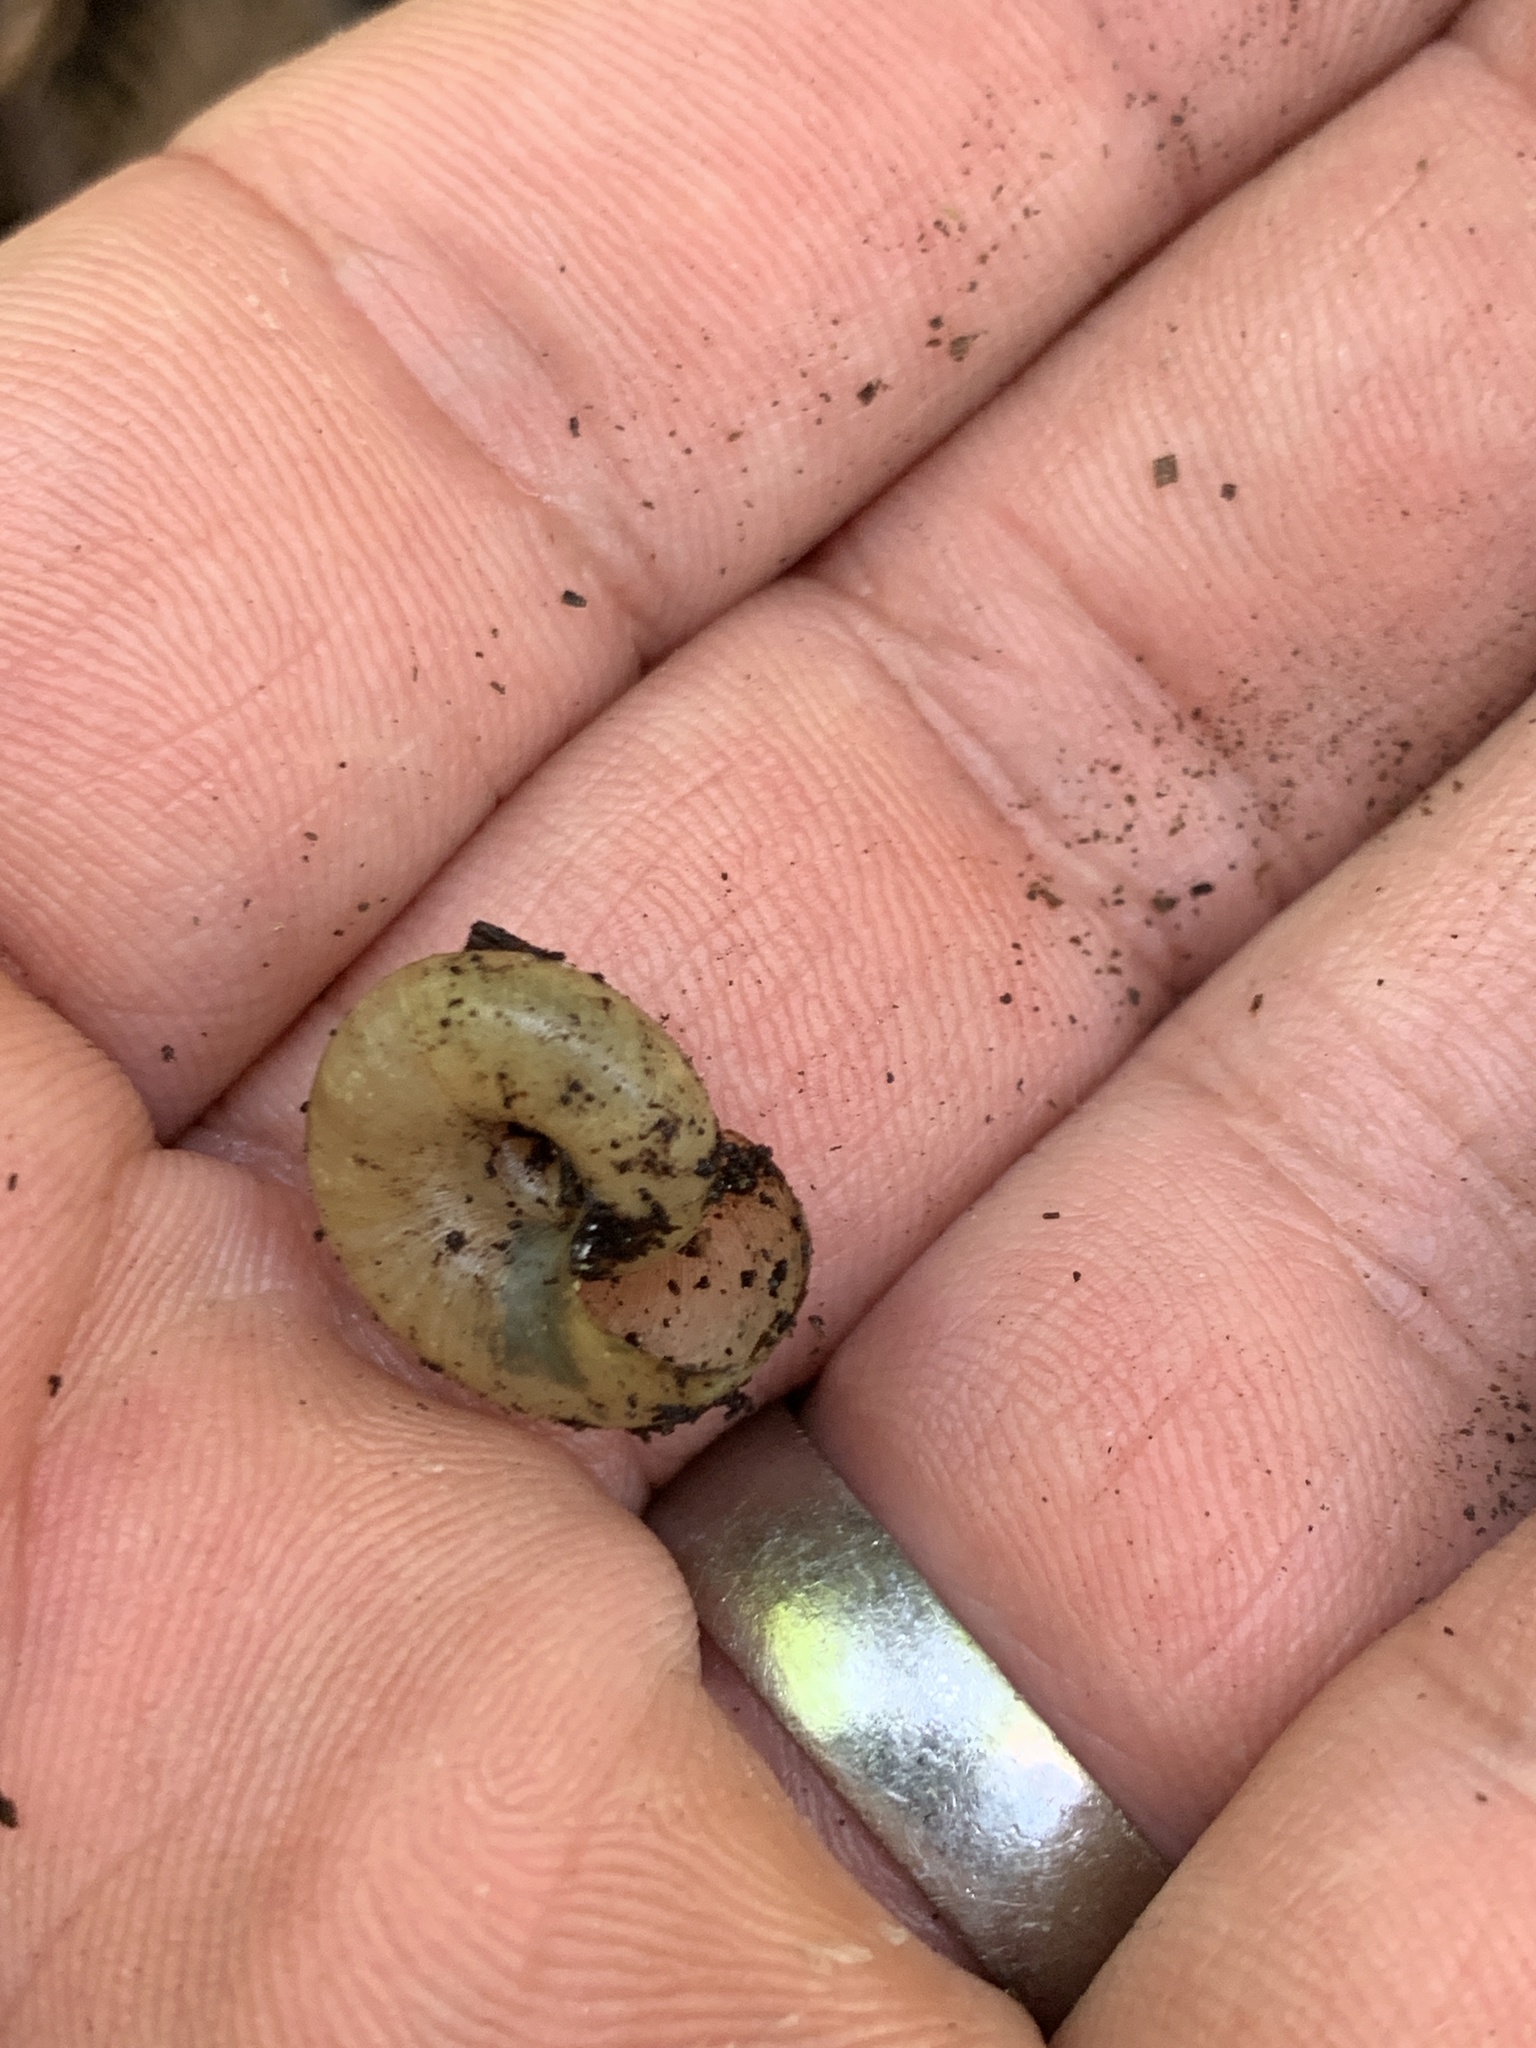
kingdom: Animalia
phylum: Mollusca
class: Gastropoda
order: Stylommatophora
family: Haplotrematidae
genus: Haplotrema
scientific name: Haplotrema minimum
